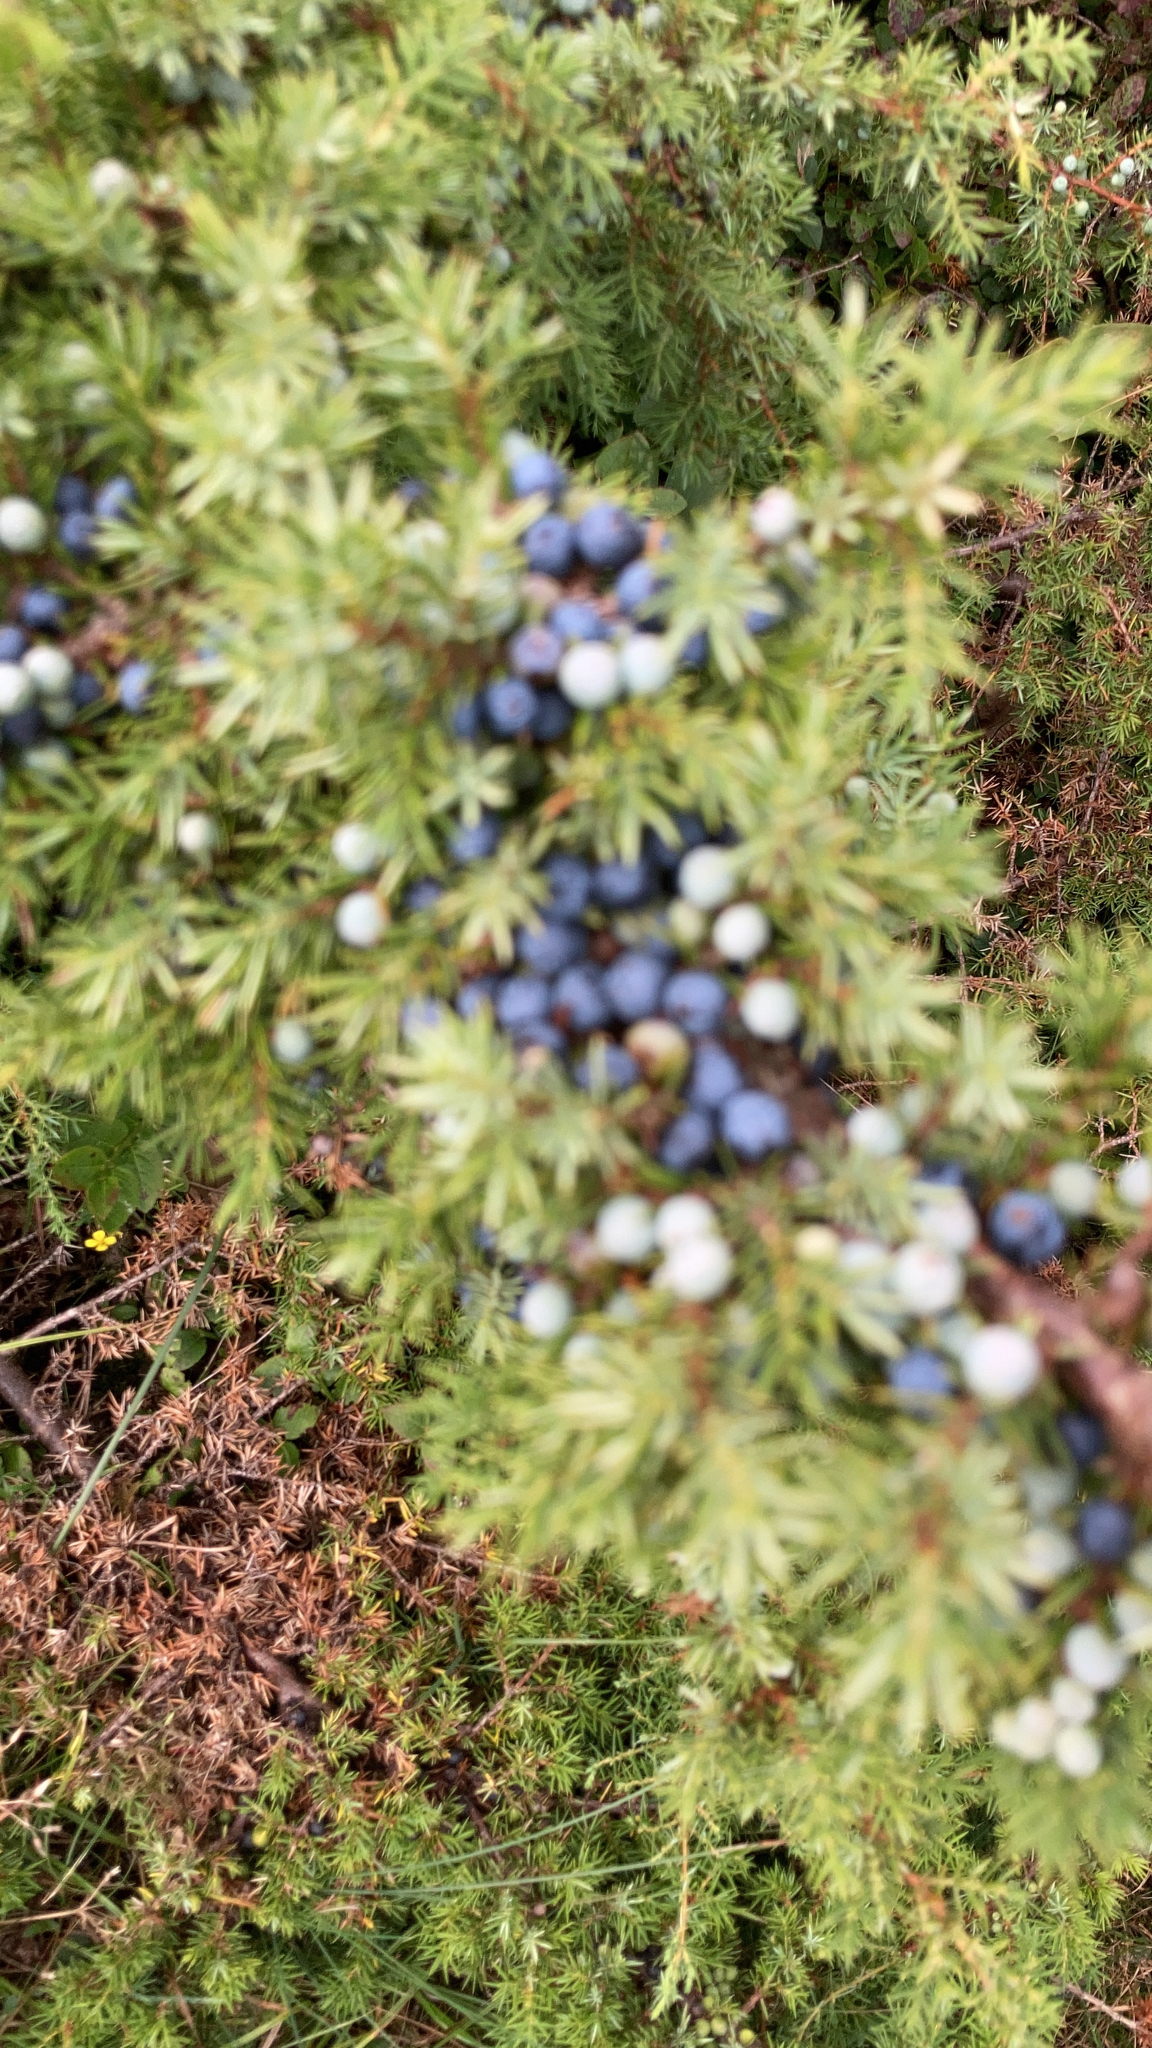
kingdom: Plantae
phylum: Tracheophyta
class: Pinopsida
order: Pinales
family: Cupressaceae
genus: Juniperus
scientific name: Juniperus communis
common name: Common juniper
